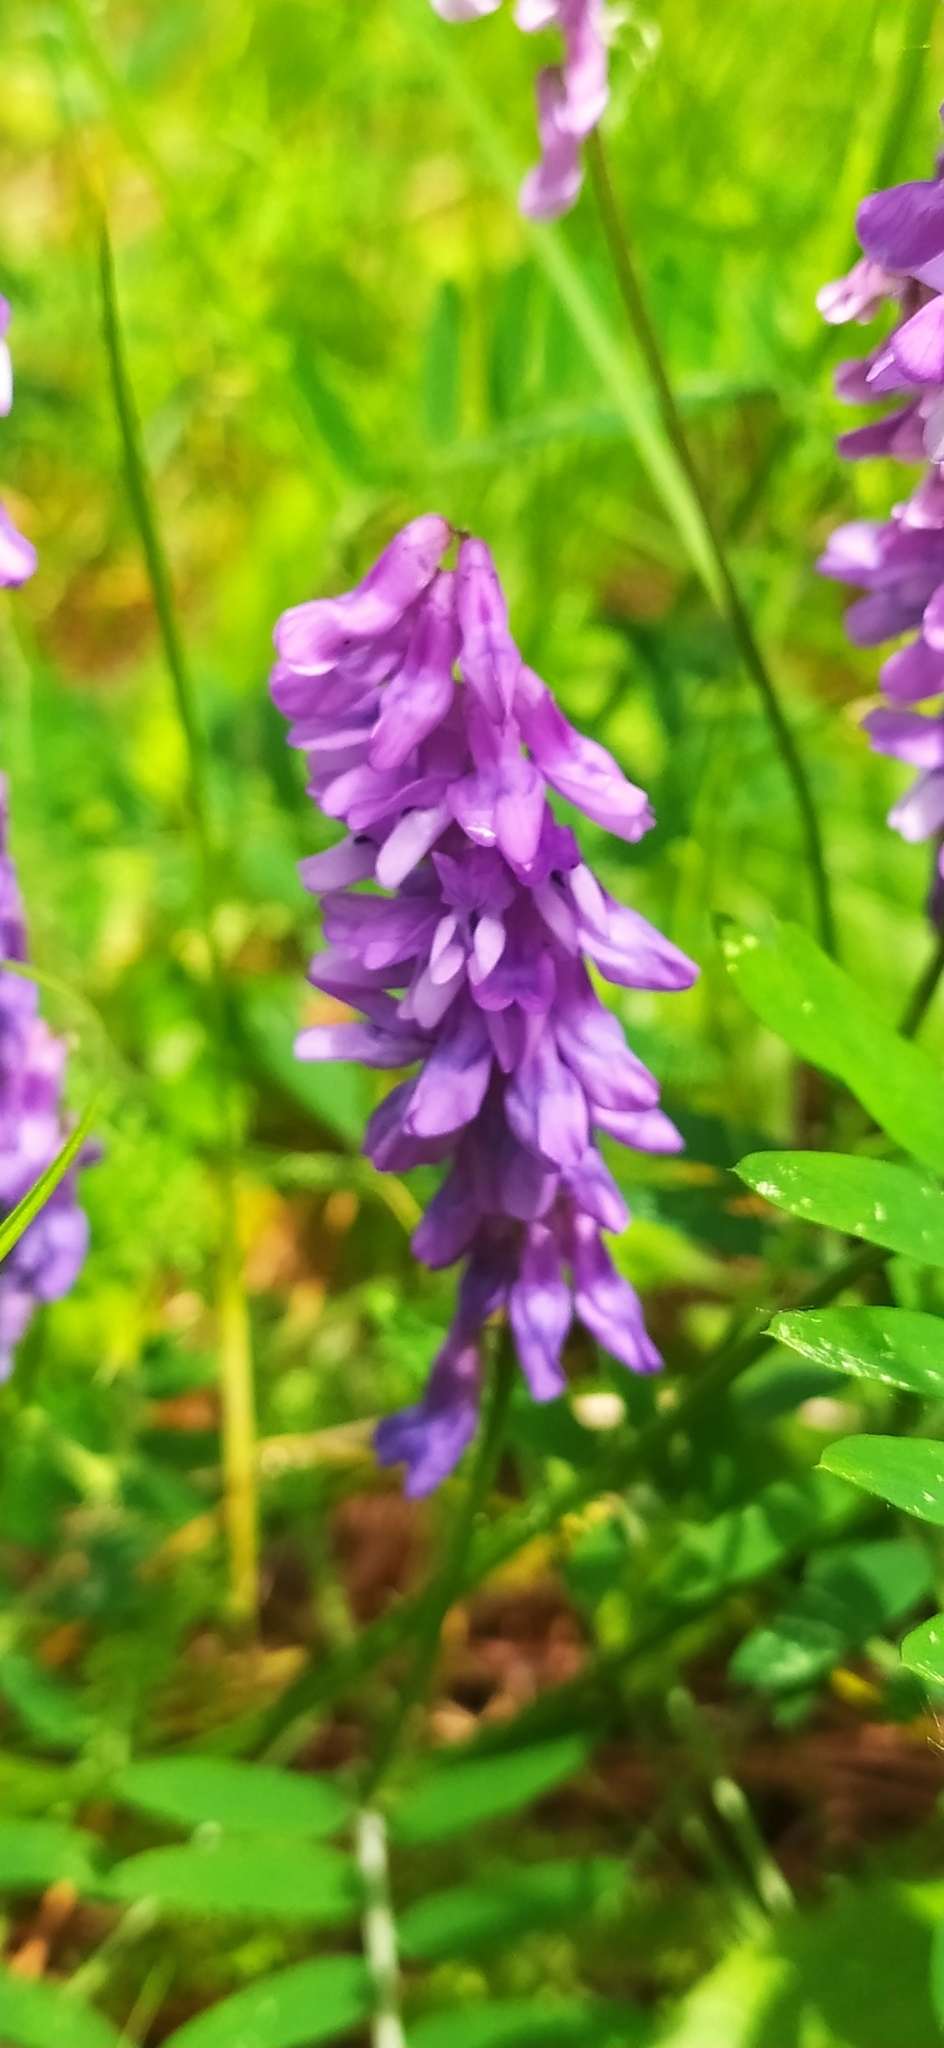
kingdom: Plantae
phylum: Tracheophyta
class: Magnoliopsida
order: Fabales
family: Fabaceae
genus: Vicia
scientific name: Vicia cracca
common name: Bird vetch
